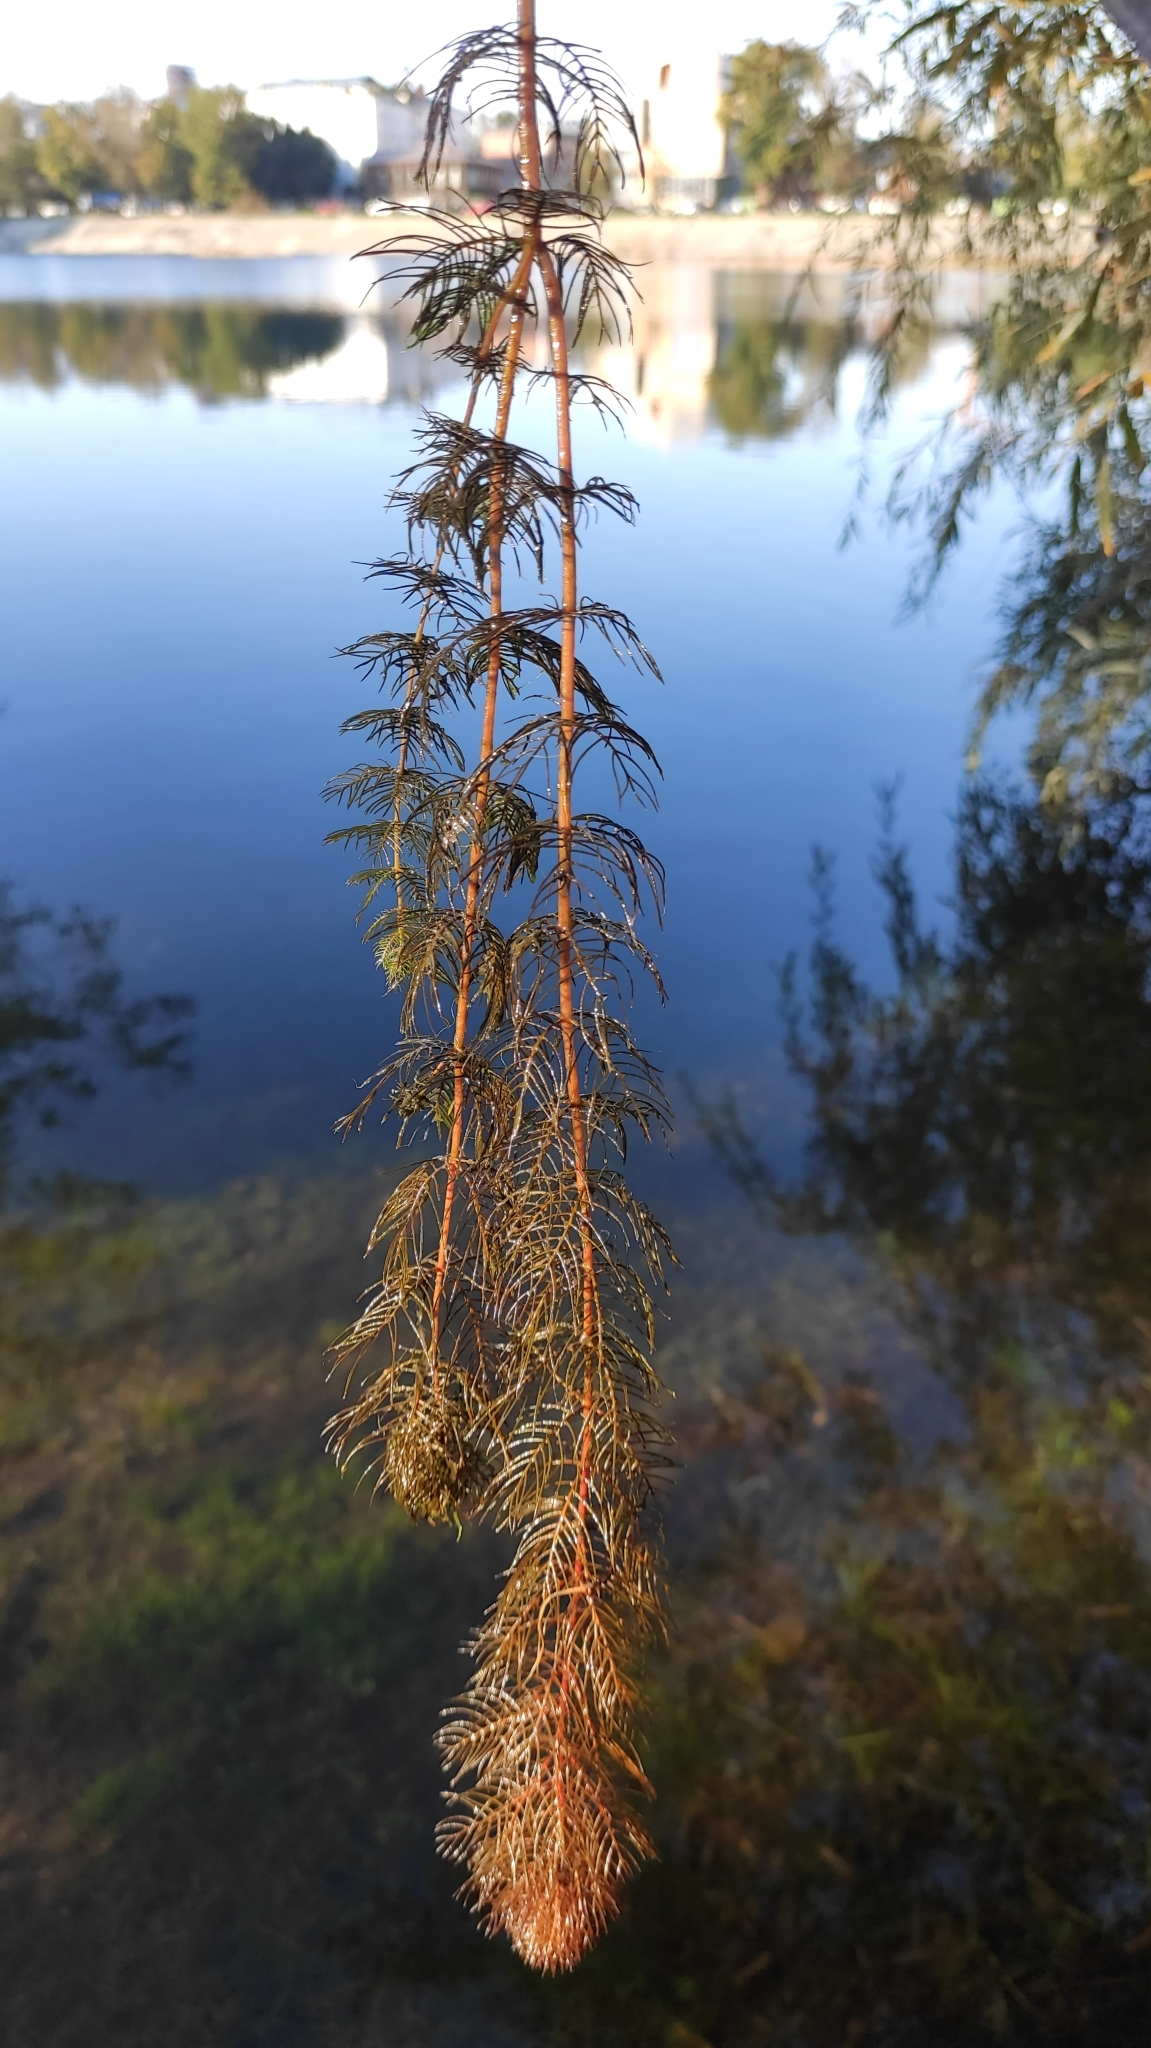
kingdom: Plantae
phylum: Tracheophyta
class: Magnoliopsida
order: Saxifragales
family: Haloragaceae
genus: Myriophyllum
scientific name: Myriophyllum sibiricum
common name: Siberian water-milfoil
